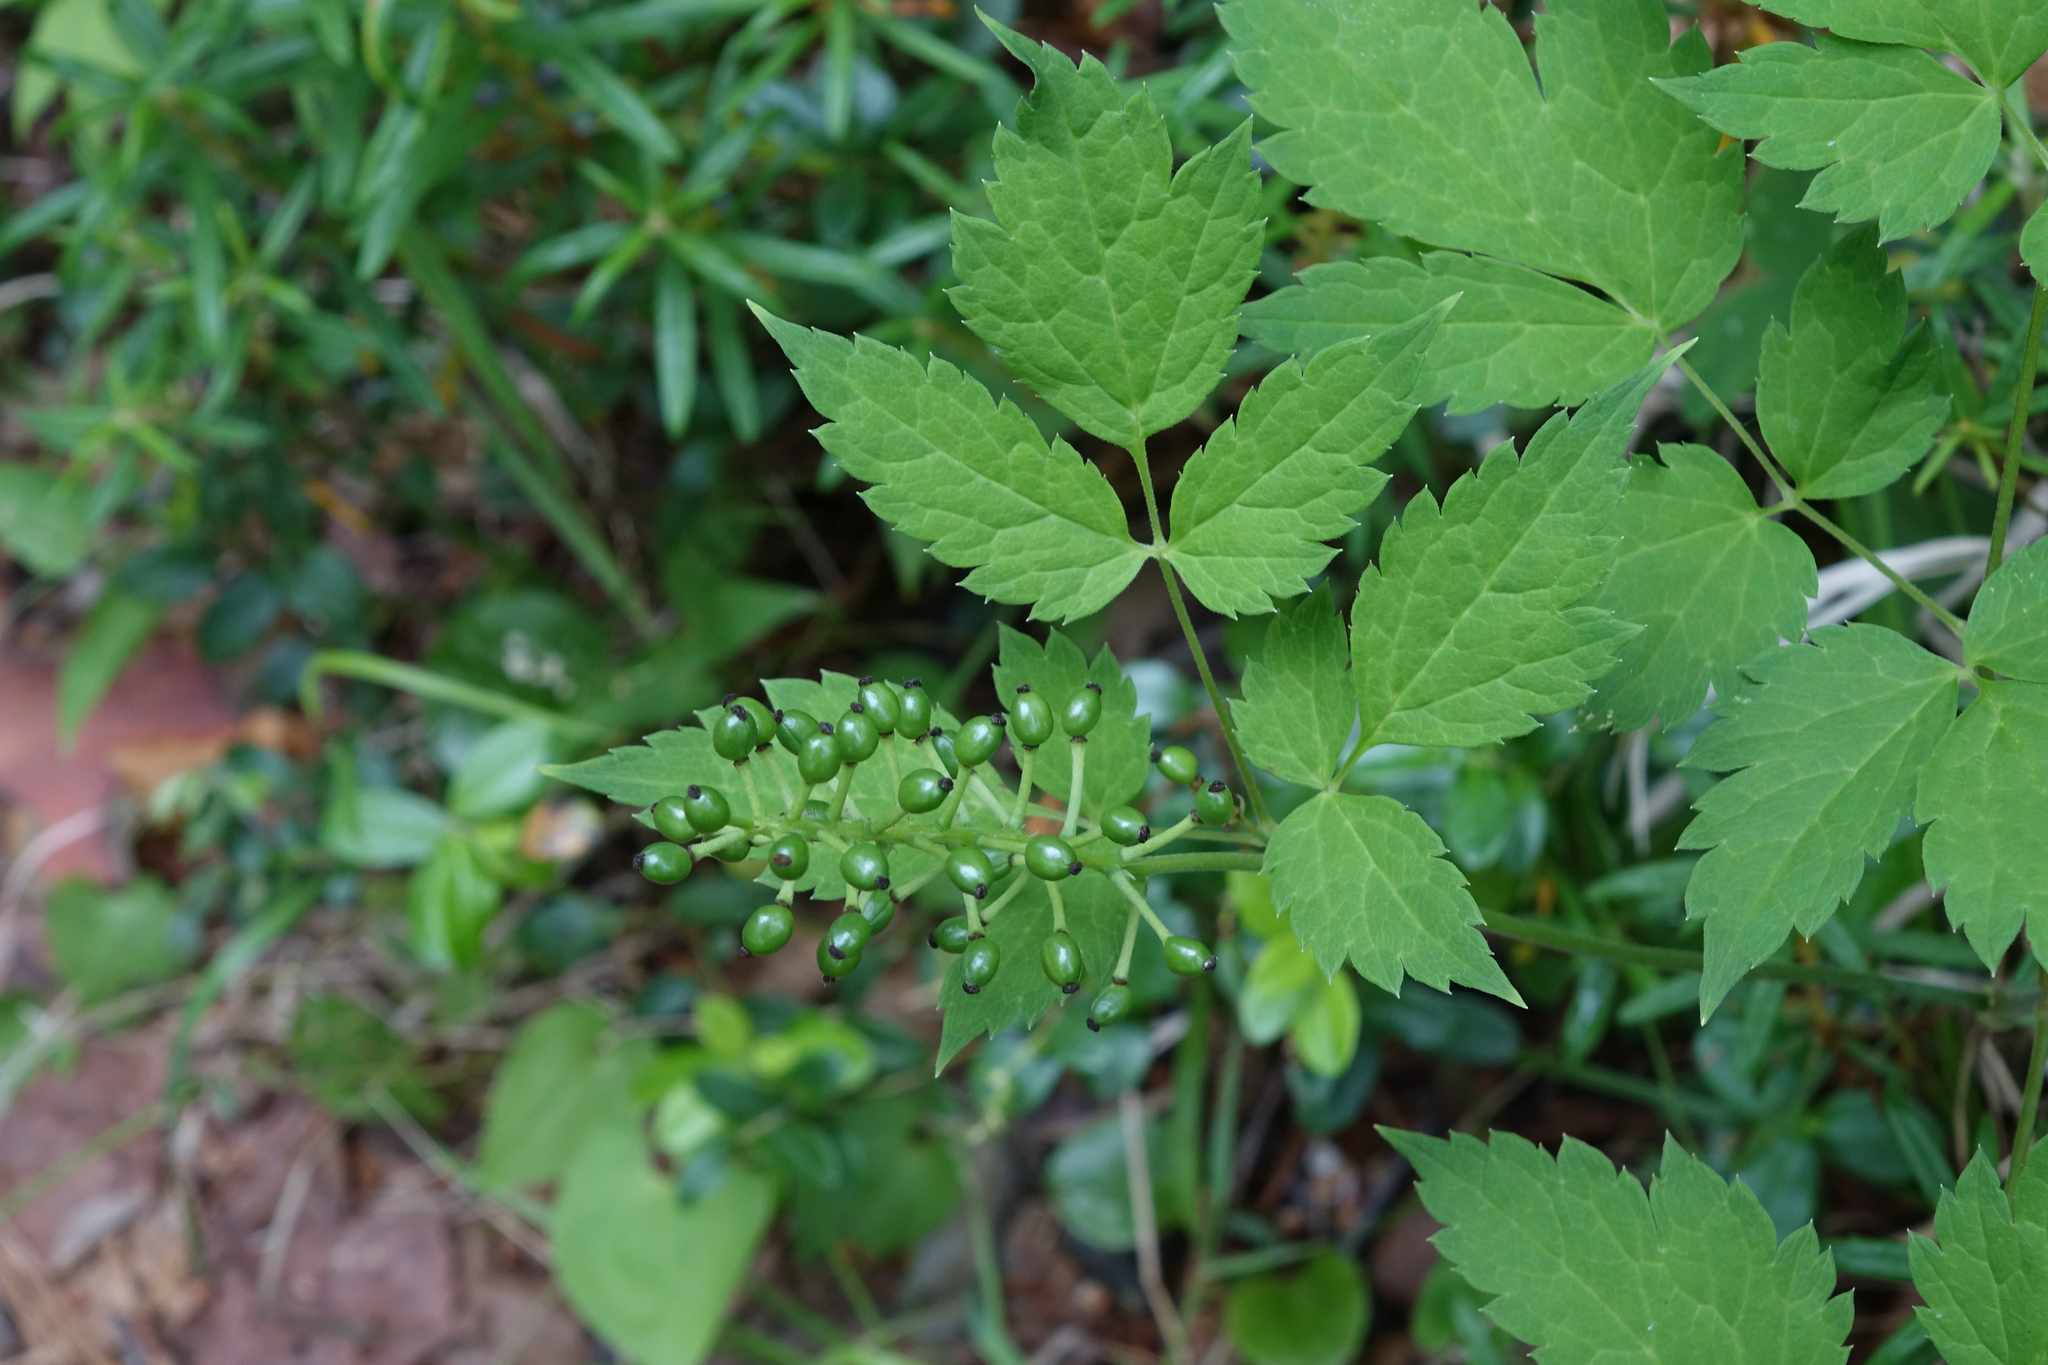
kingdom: Plantae
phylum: Tracheophyta
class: Magnoliopsida
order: Ranunculales
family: Ranunculaceae
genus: Actaea
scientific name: Actaea erythrocarpa
